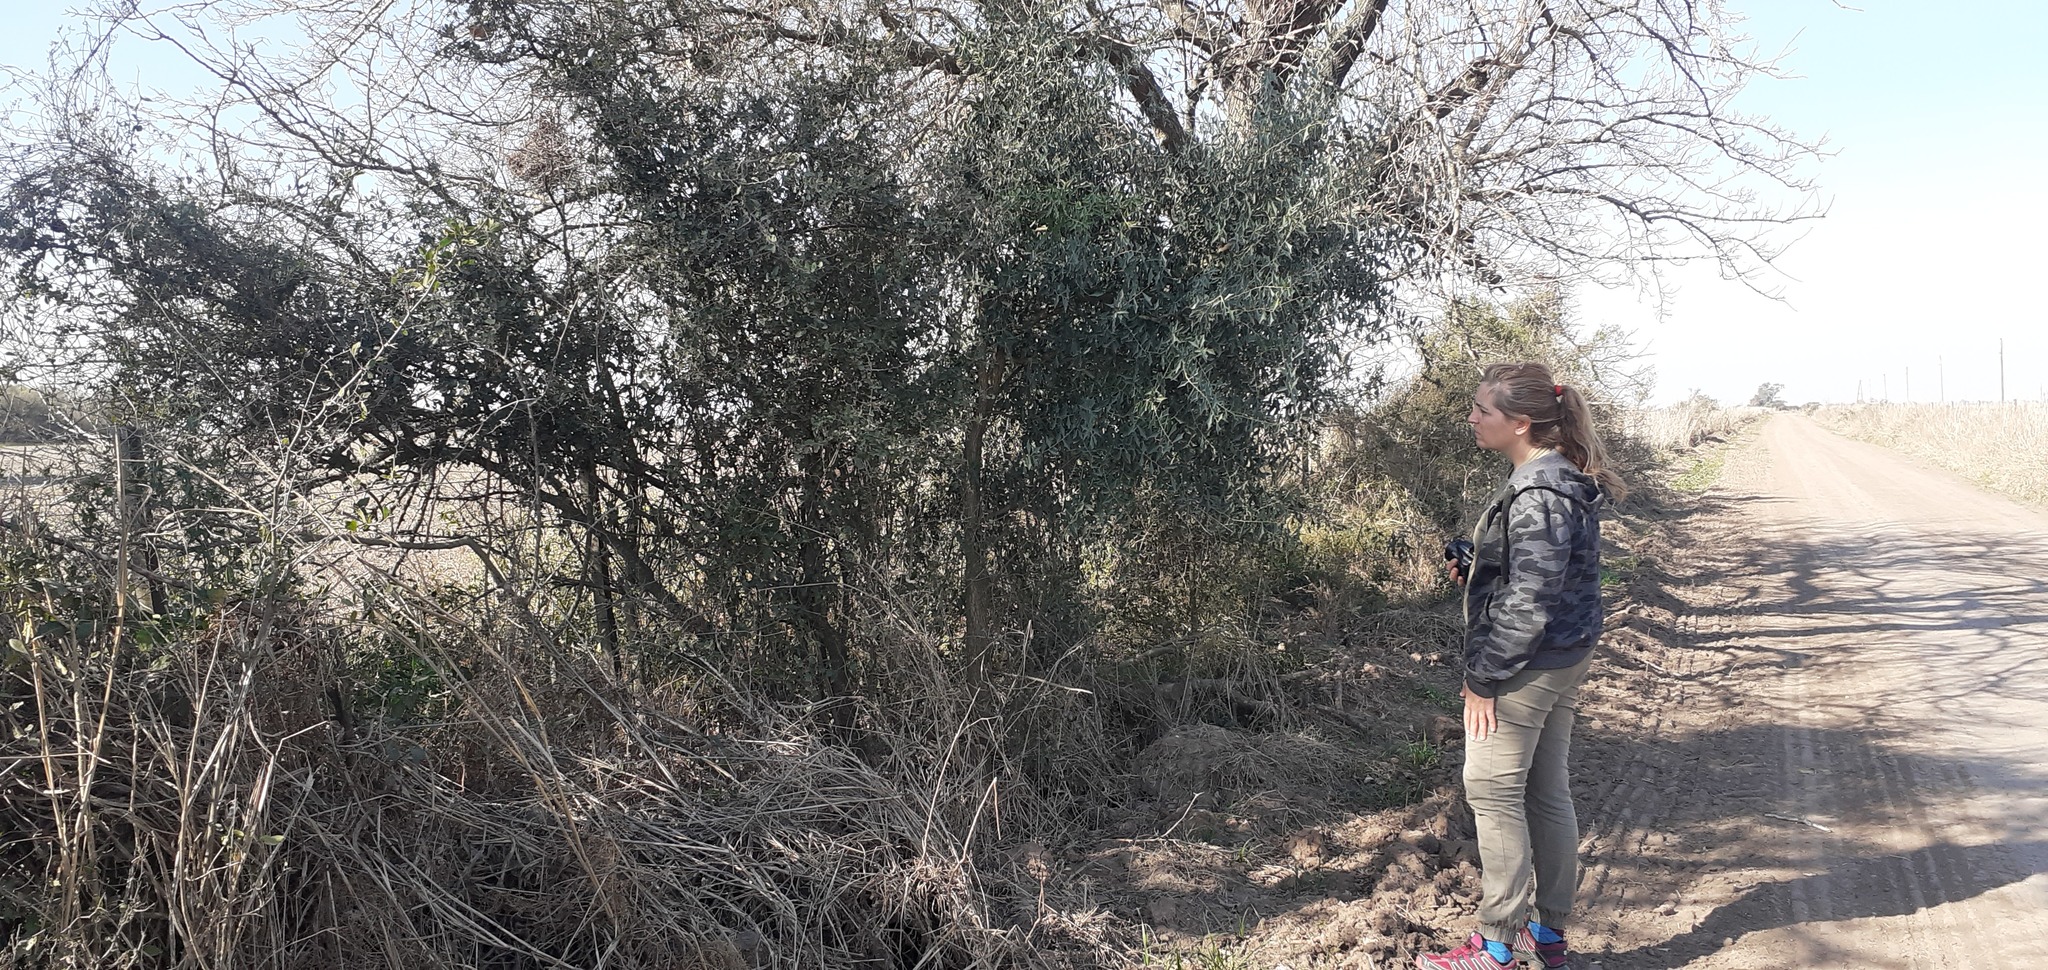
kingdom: Plantae
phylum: Tracheophyta
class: Magnoliopsida
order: Santalales
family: Cervantesiaceae
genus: Jodina
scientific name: Jodina rhombifolia
